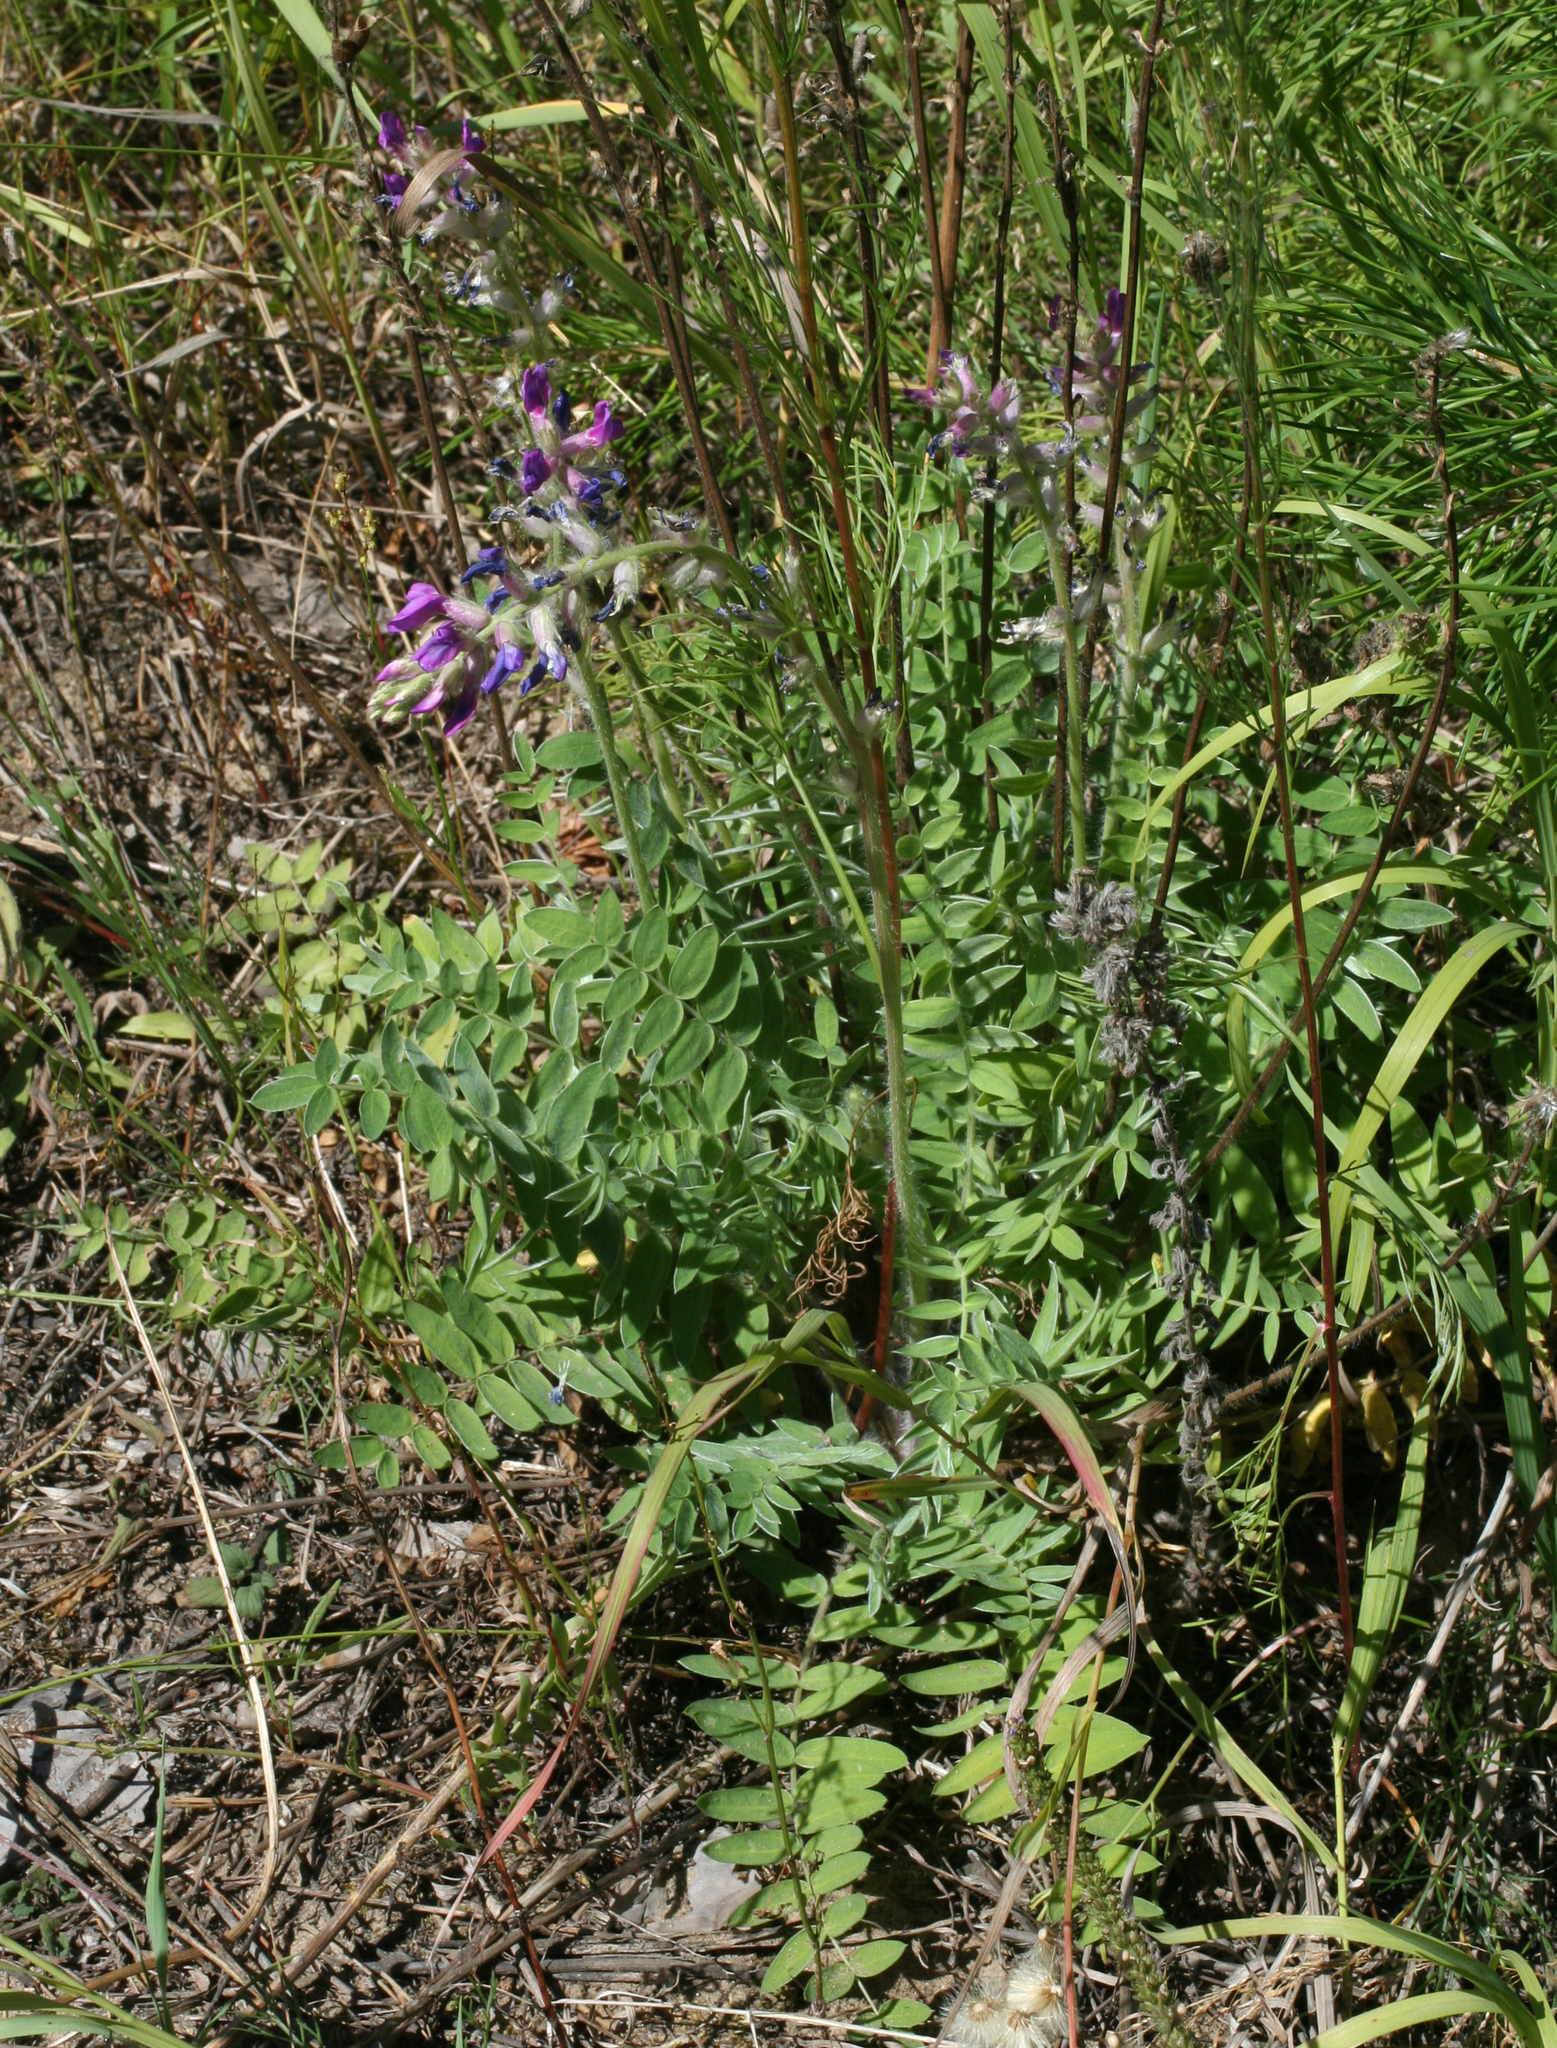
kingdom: Plantae
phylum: Tracheophyta
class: Magnoliopsida
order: Fabales
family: Fabaceae
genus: Oxytropis
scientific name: Oxytropis campanulata
